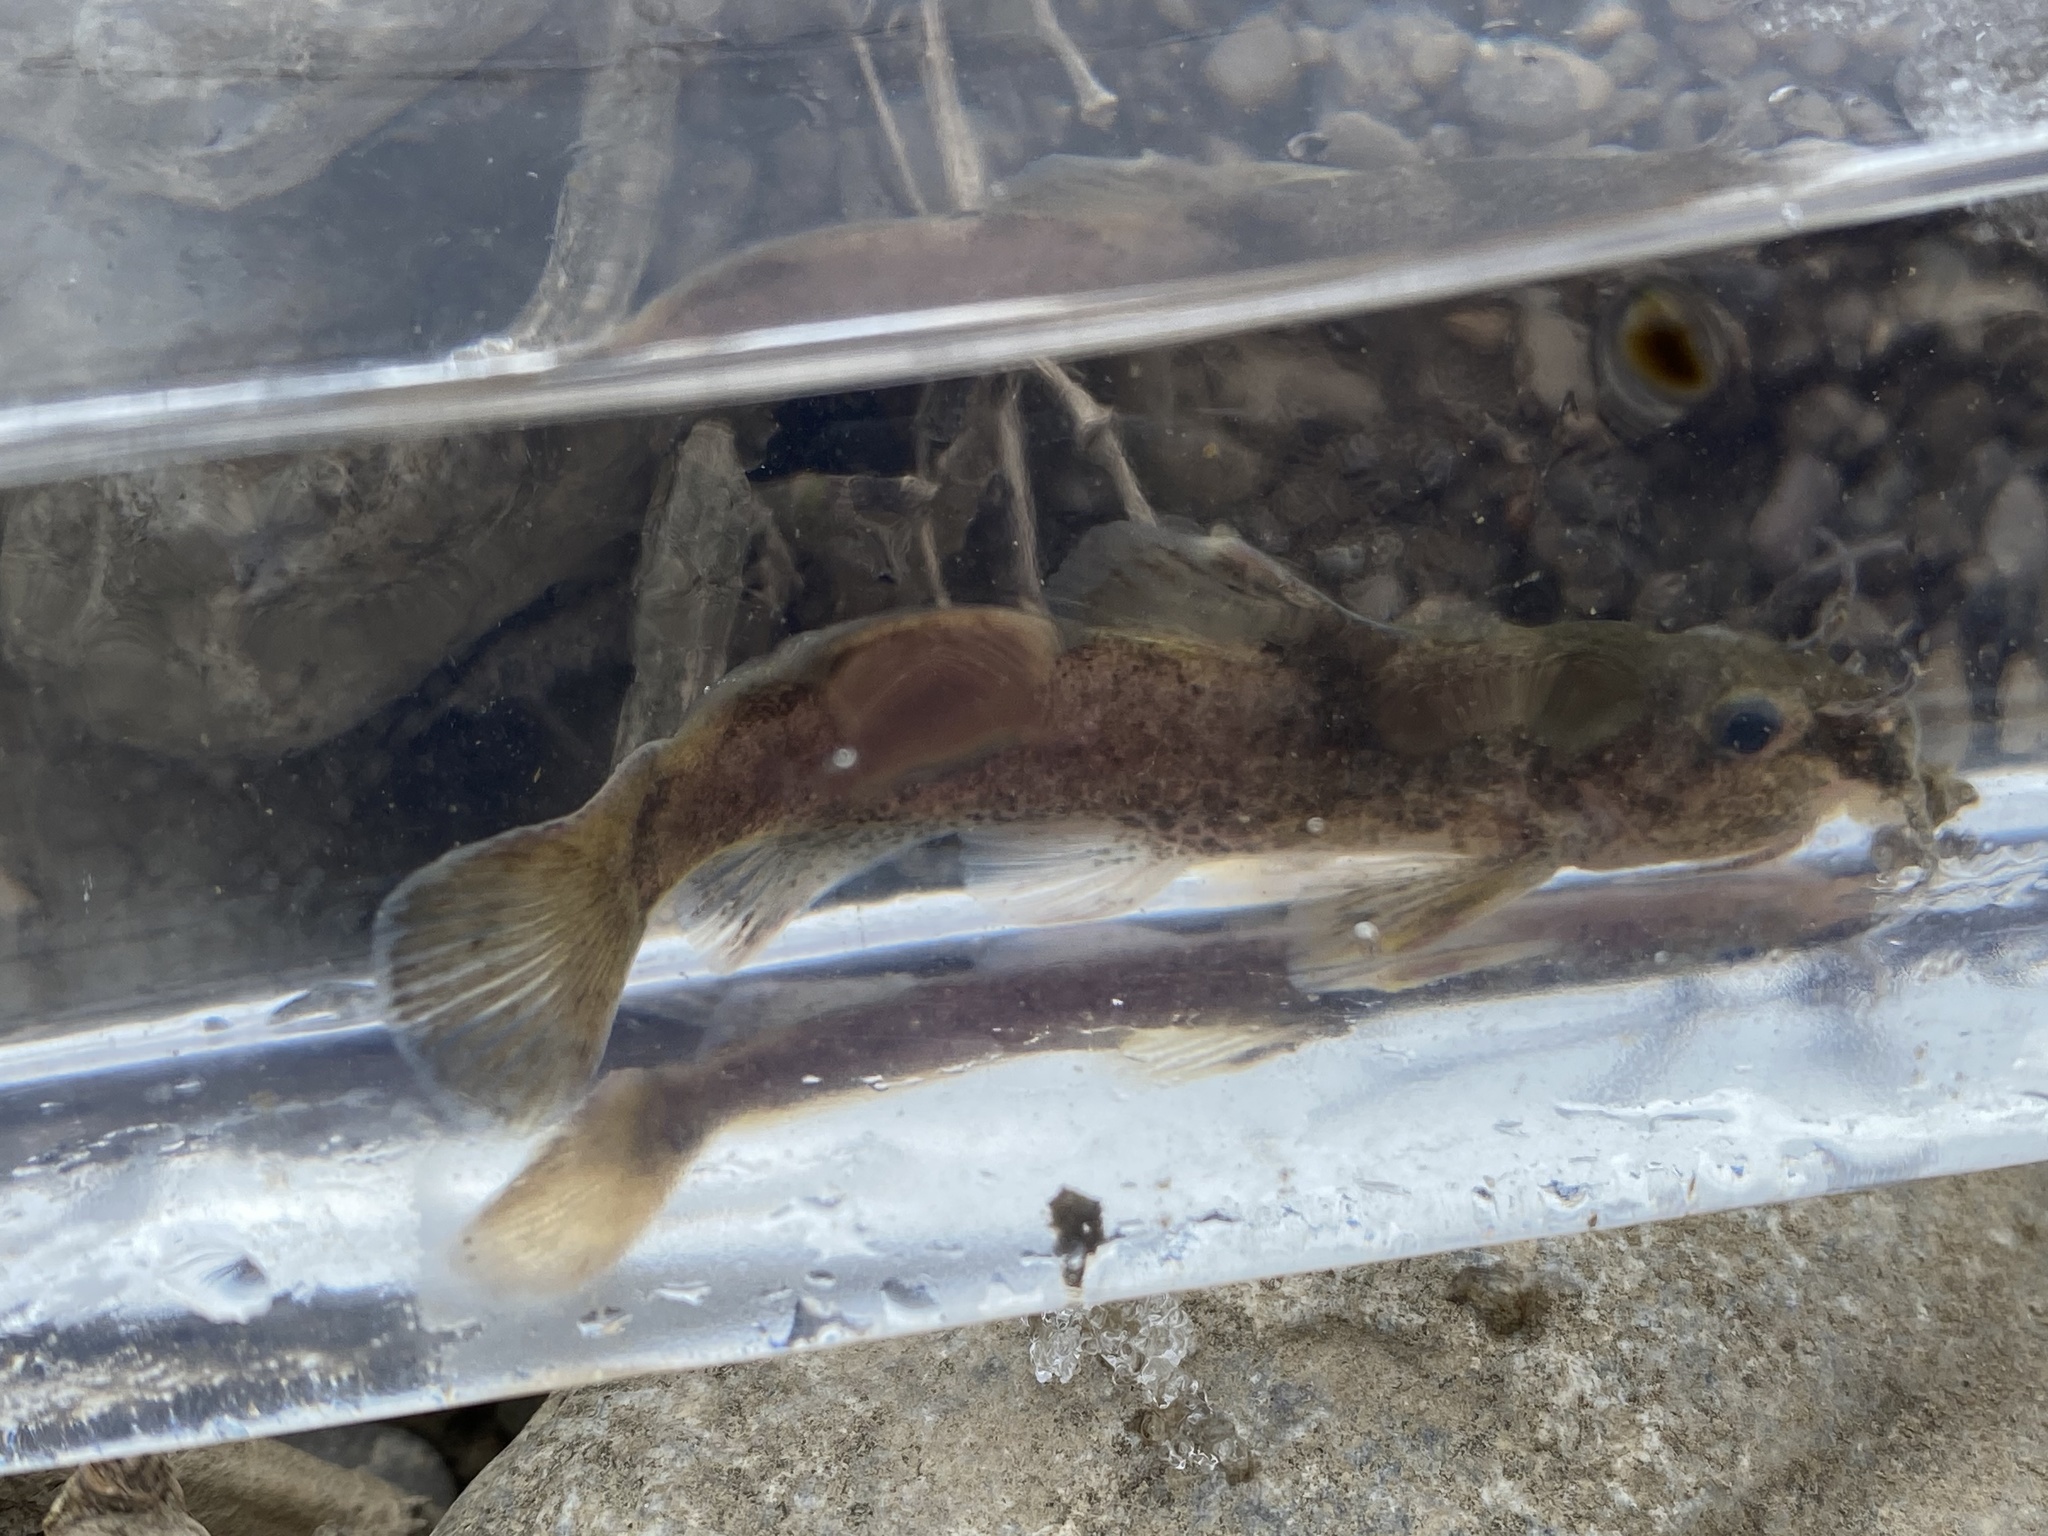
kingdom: Animalia
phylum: Chordata
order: Siluriformes
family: Ictaluridae
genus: Noturus
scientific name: Noturus eleutherus
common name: Mountain madtom
